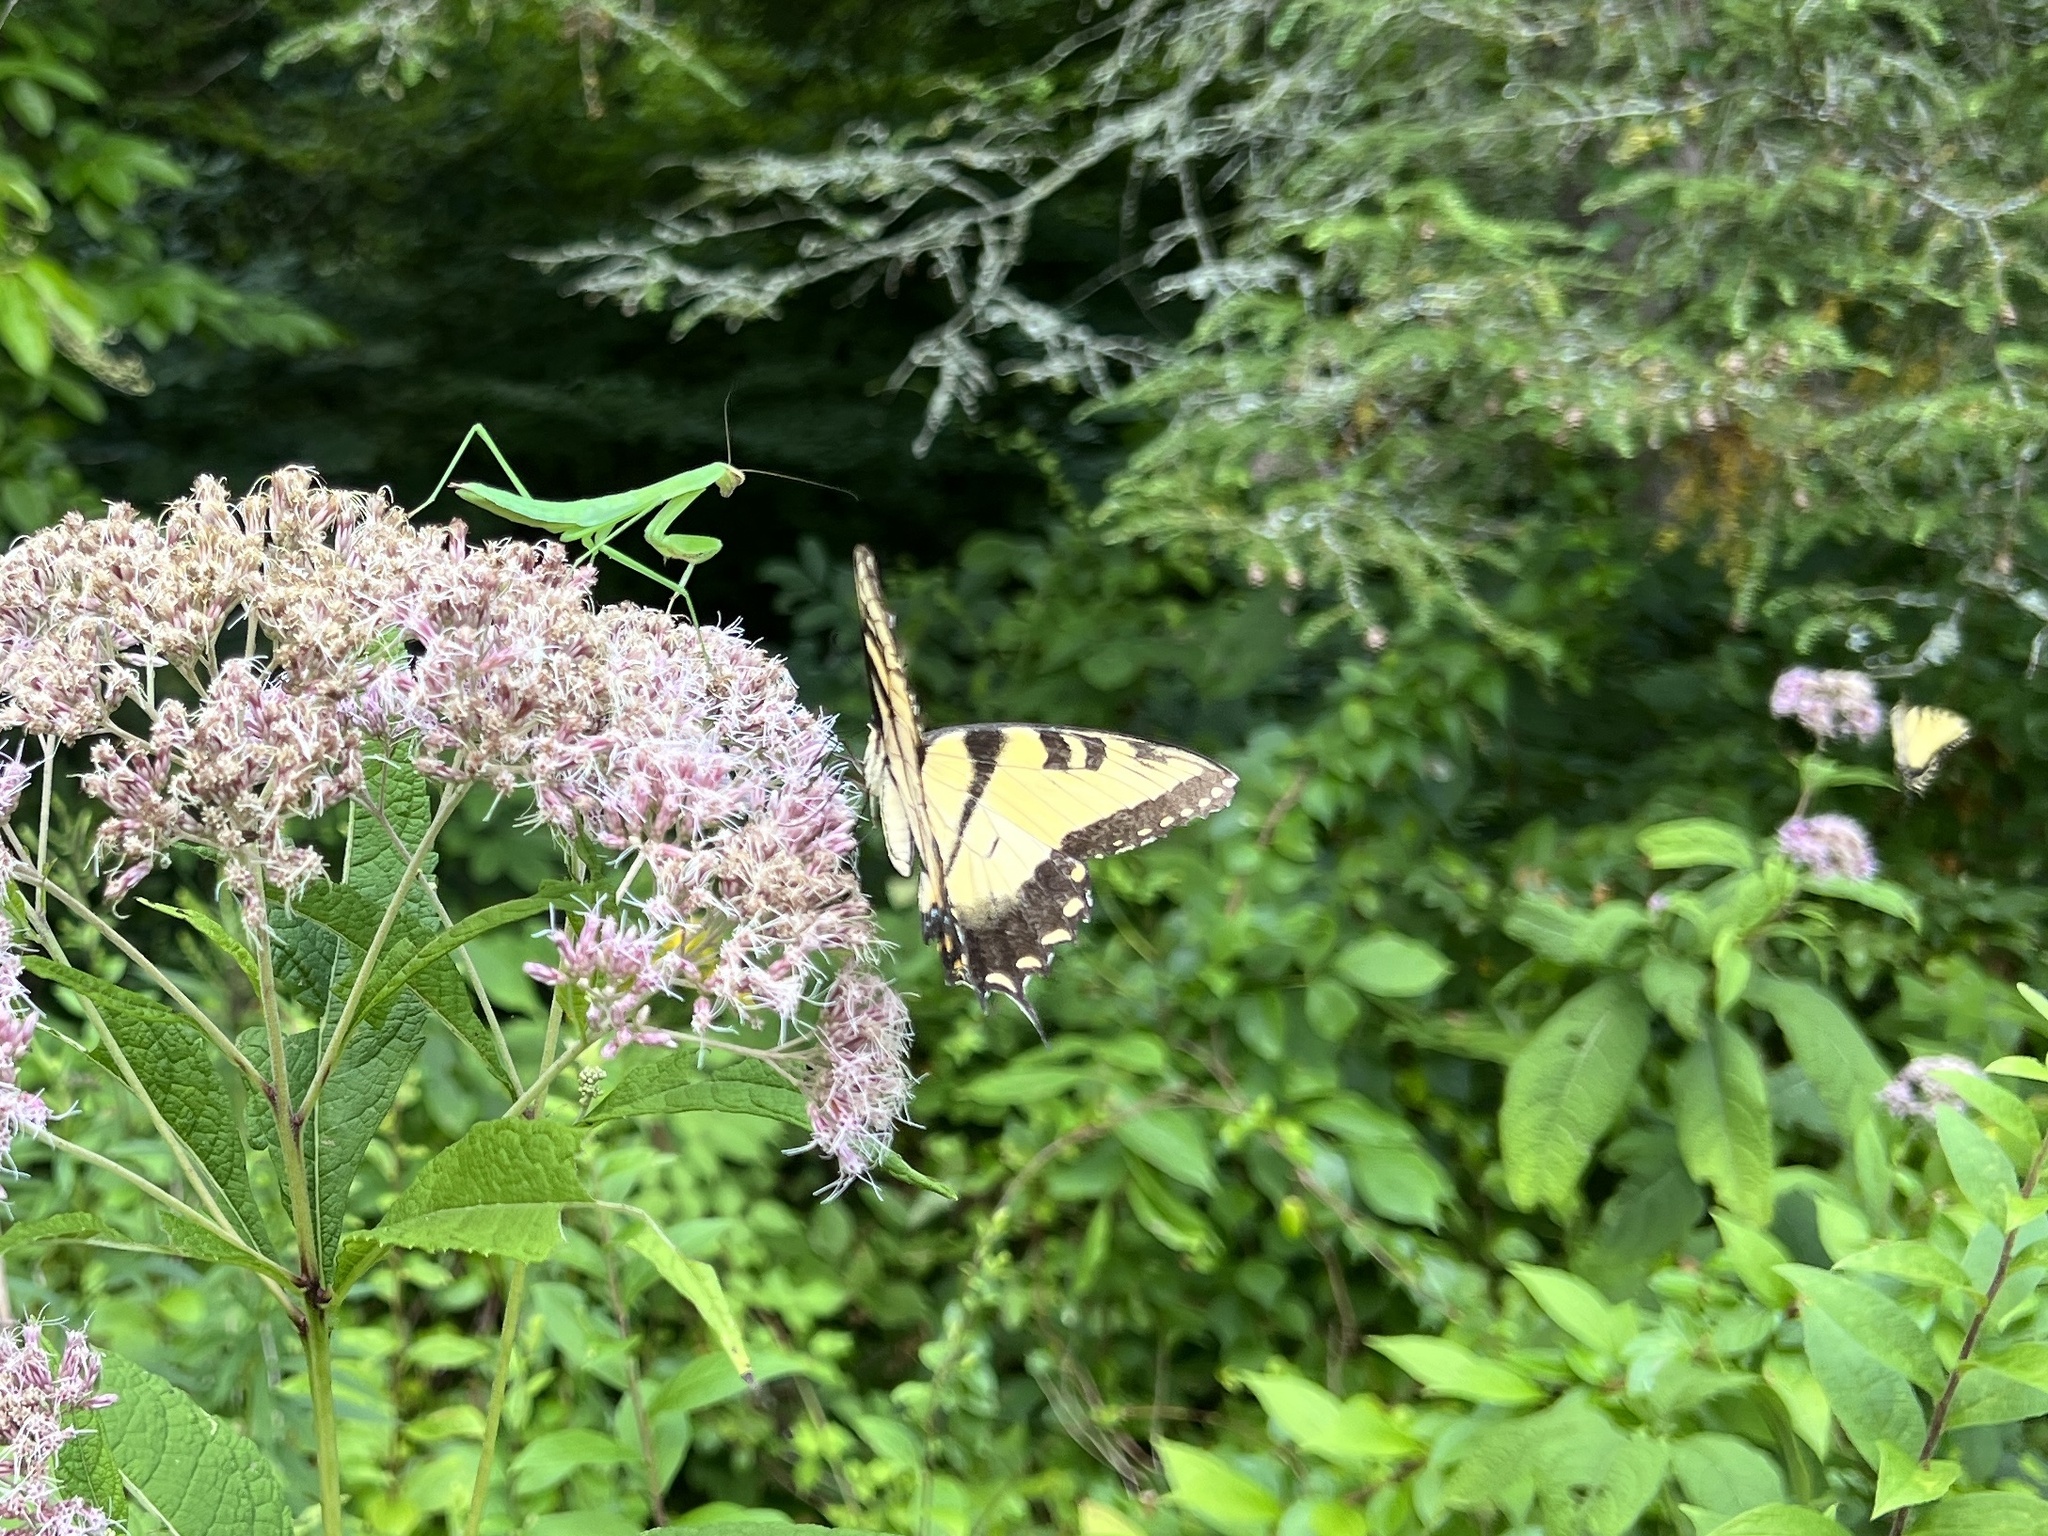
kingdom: Animalia
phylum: Arthropoda
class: Insecta
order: Lepidoptera
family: Papilionidae
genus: Papilio
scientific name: Papilio glaucus
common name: Tiger swallowtail
